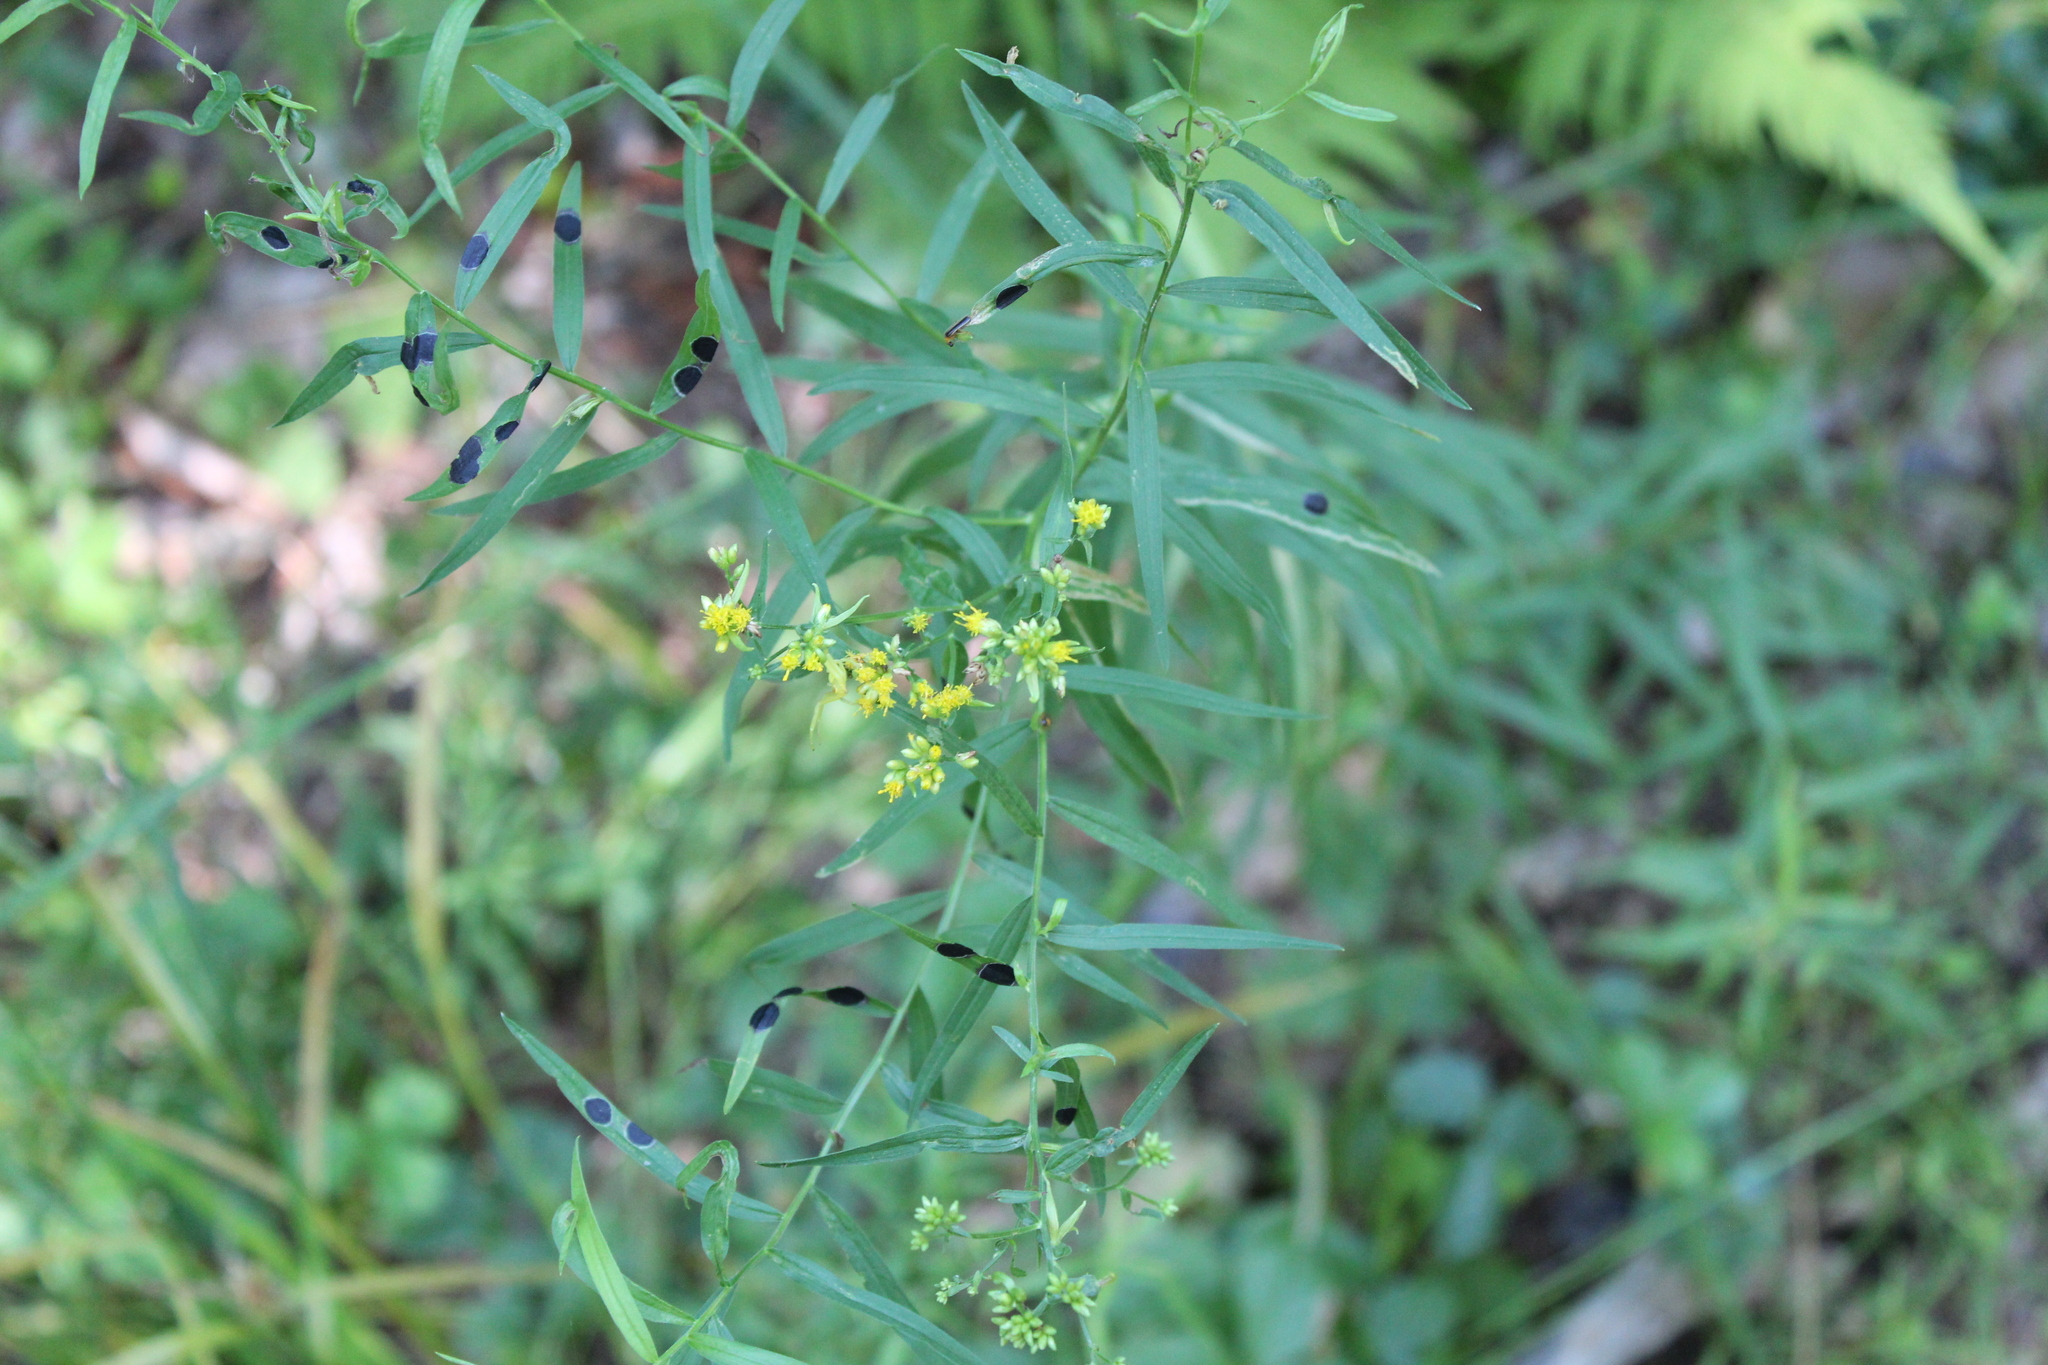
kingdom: Plantae
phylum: Tracheophyta
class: Magnoliopsida
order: Asterales
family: Asteraceae
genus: Euthamia
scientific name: Euthamia graminifolia
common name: Common goldentop
